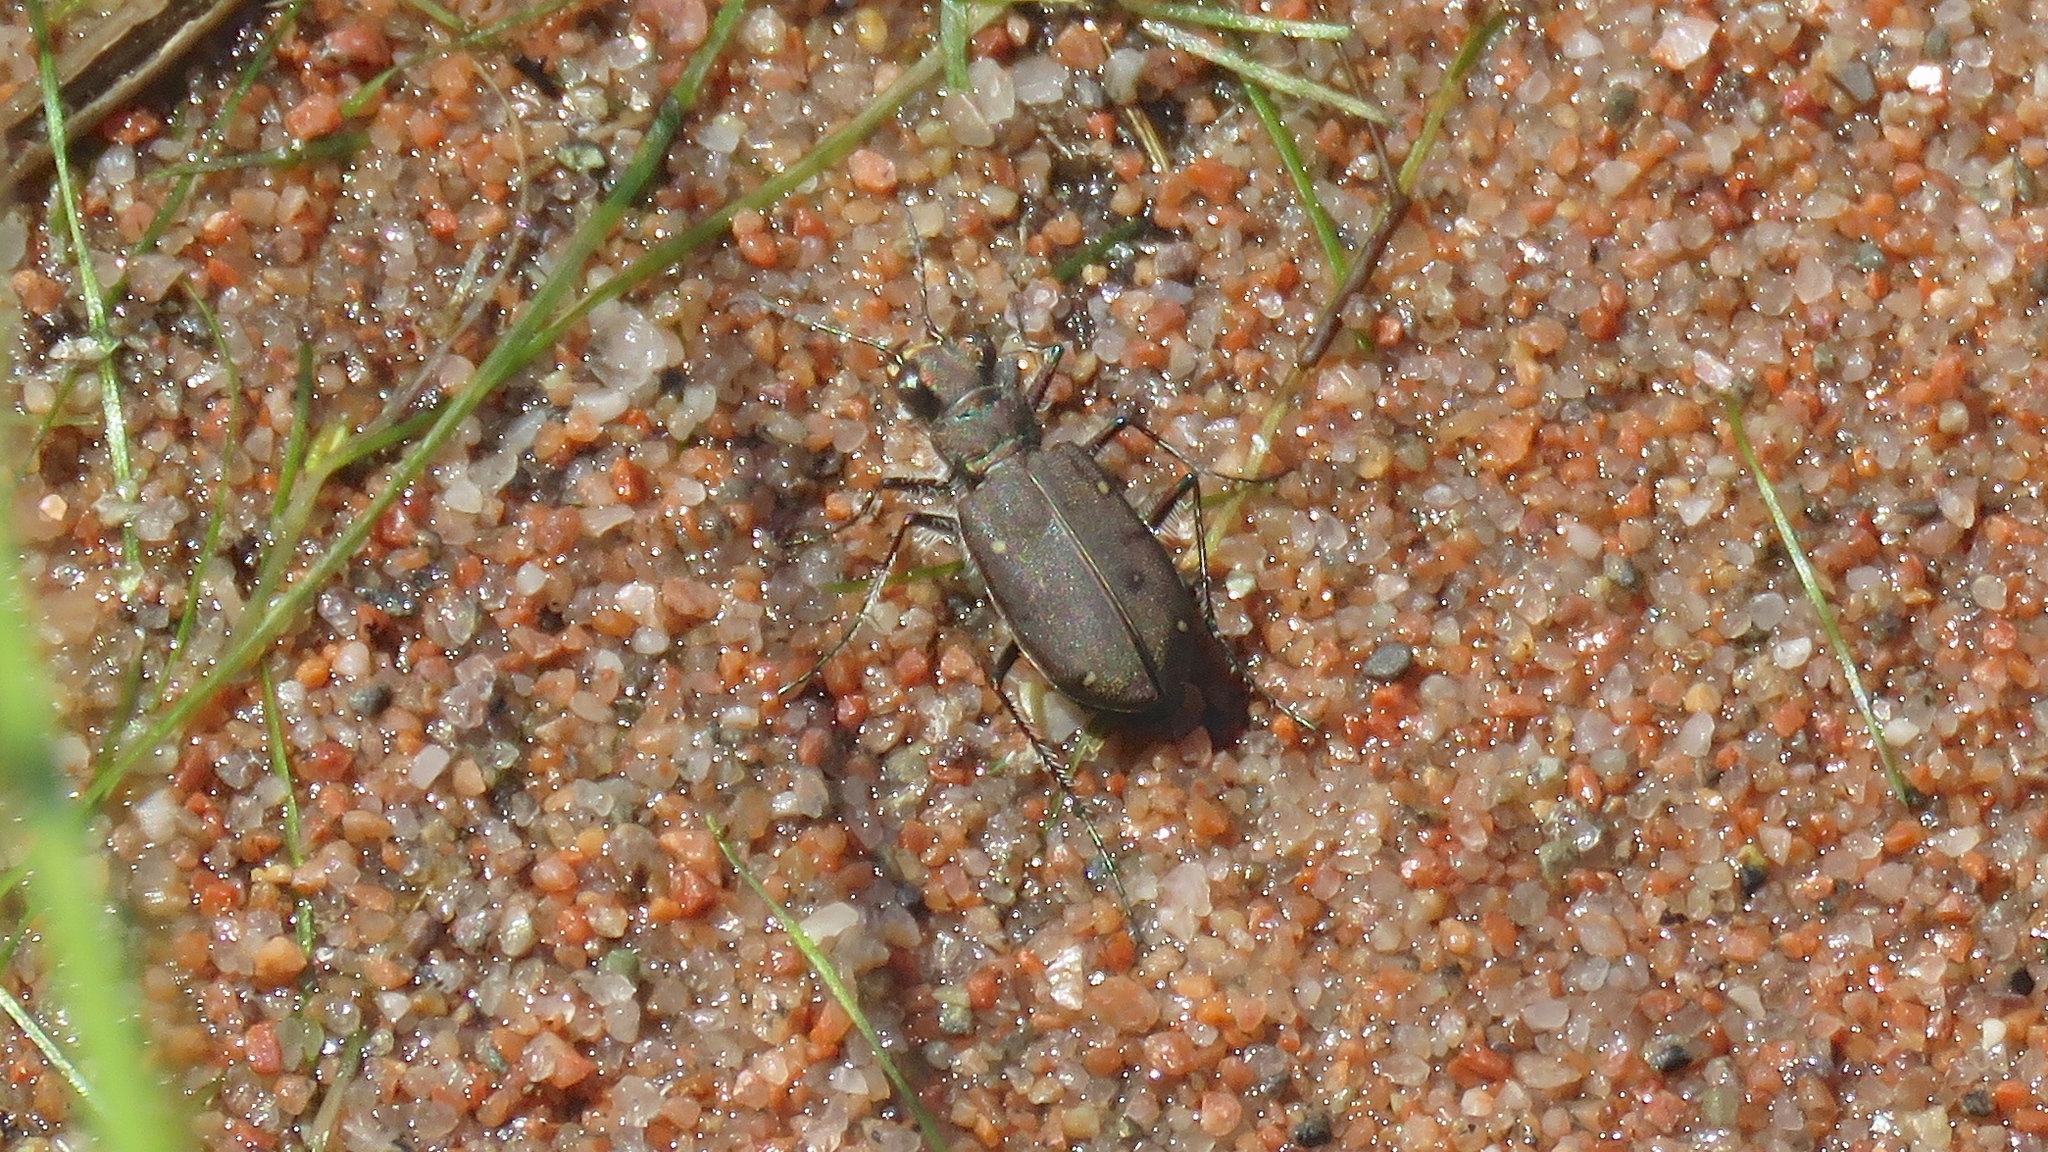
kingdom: Animalia
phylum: Arthropoda
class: Insecta
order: Coleoptera
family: Carabidae
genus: Cicindela
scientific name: Cicindela duodecimguttata
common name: Twelve-spotted tiger beetle
